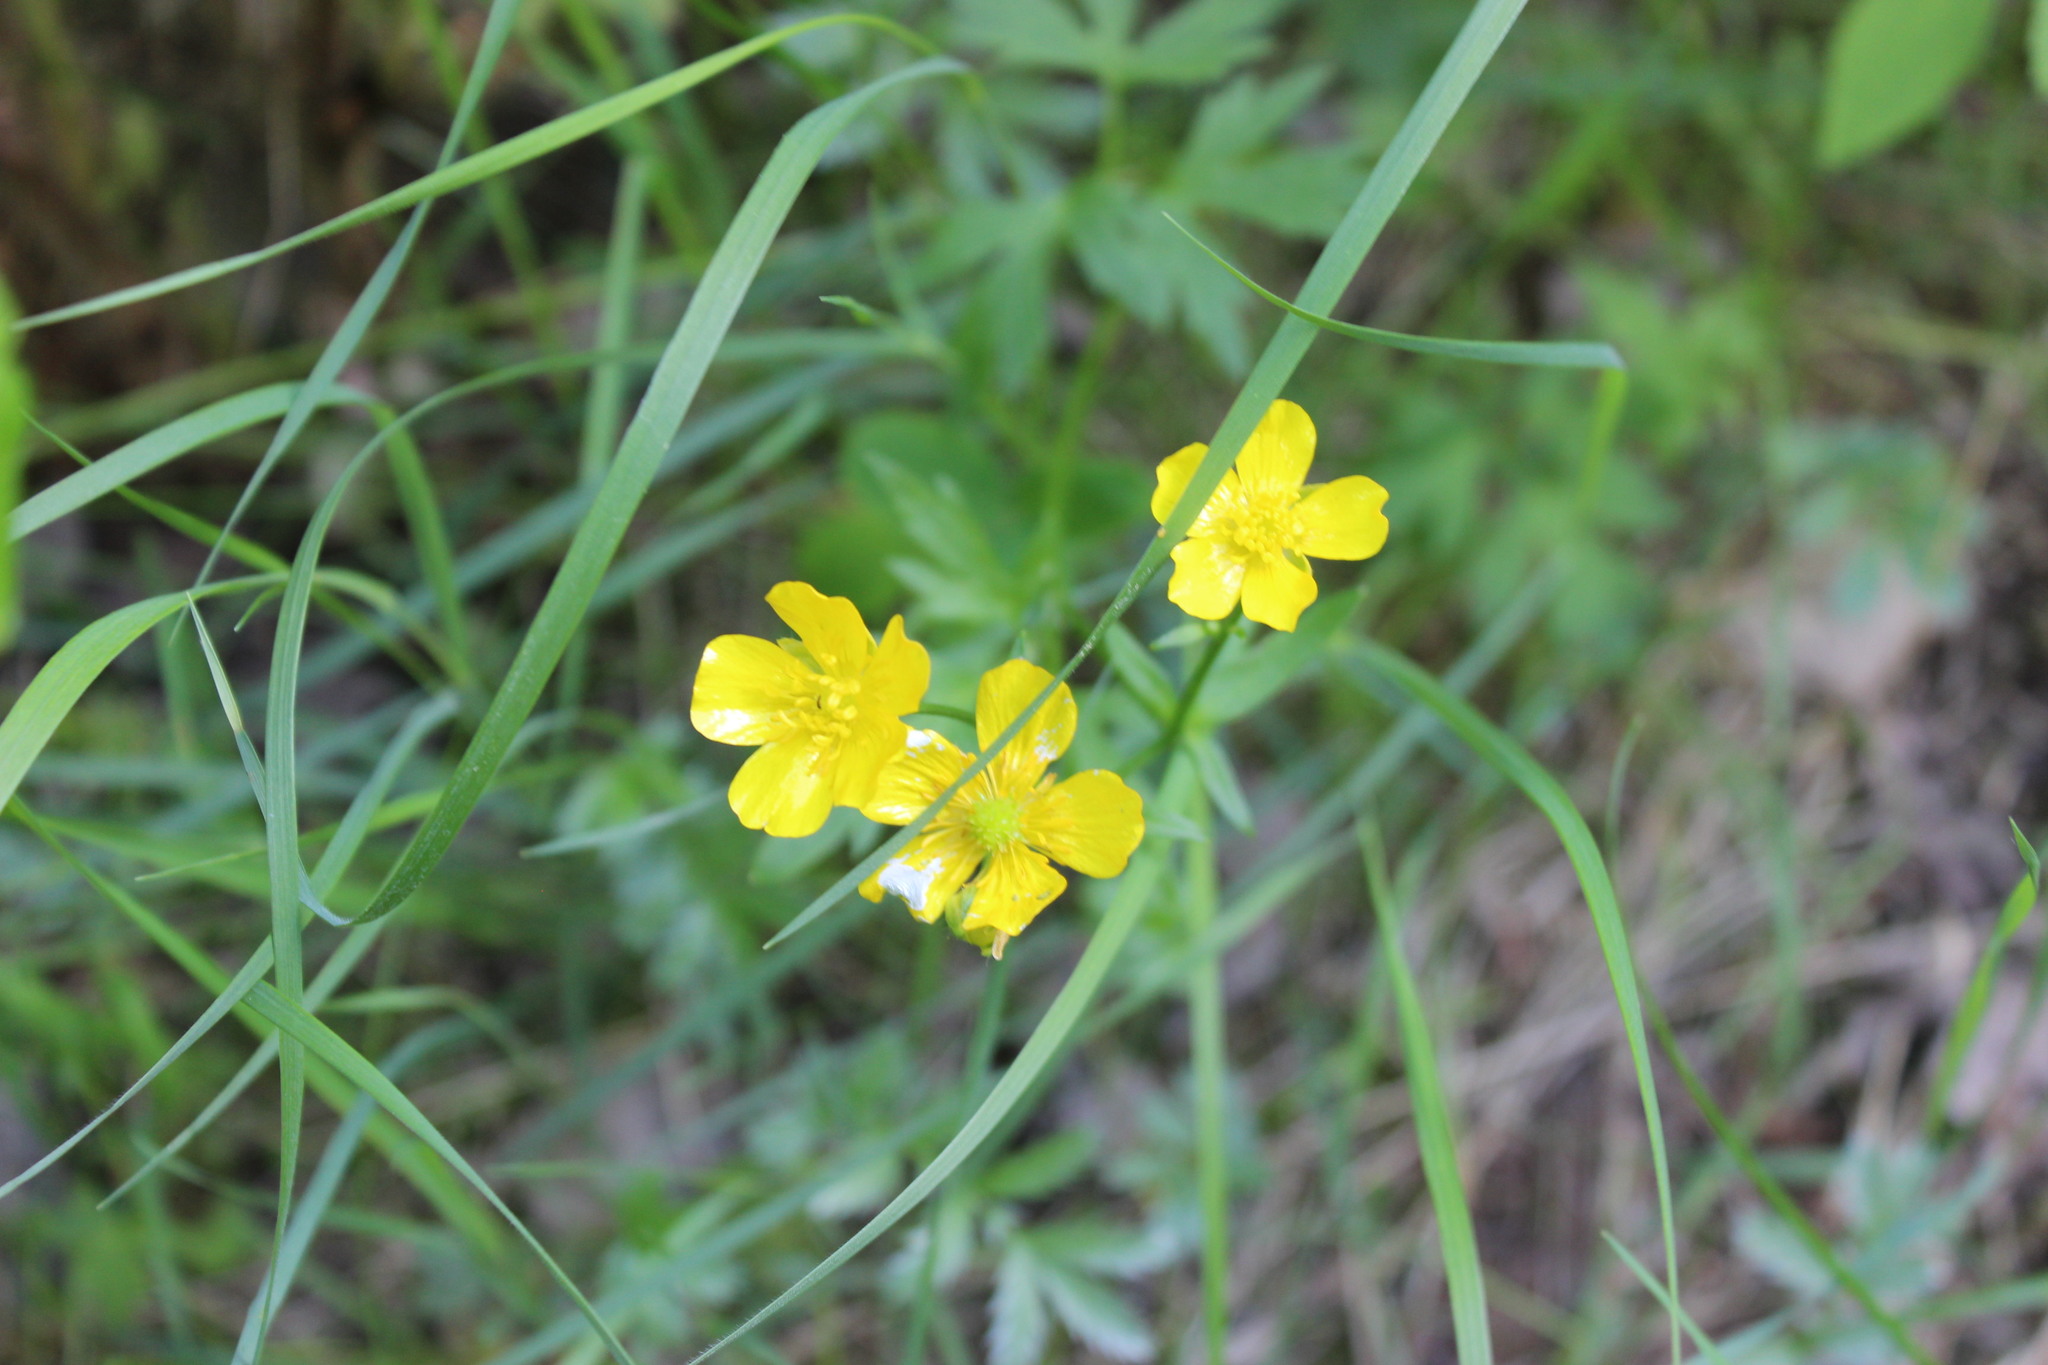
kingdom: Plantae
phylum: Tracheophyta
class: Magnoliopsida
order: Ranunculales
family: Ranunculaceae
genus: Ranunculus
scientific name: Ranunculus repens
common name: Creeping buttercup
